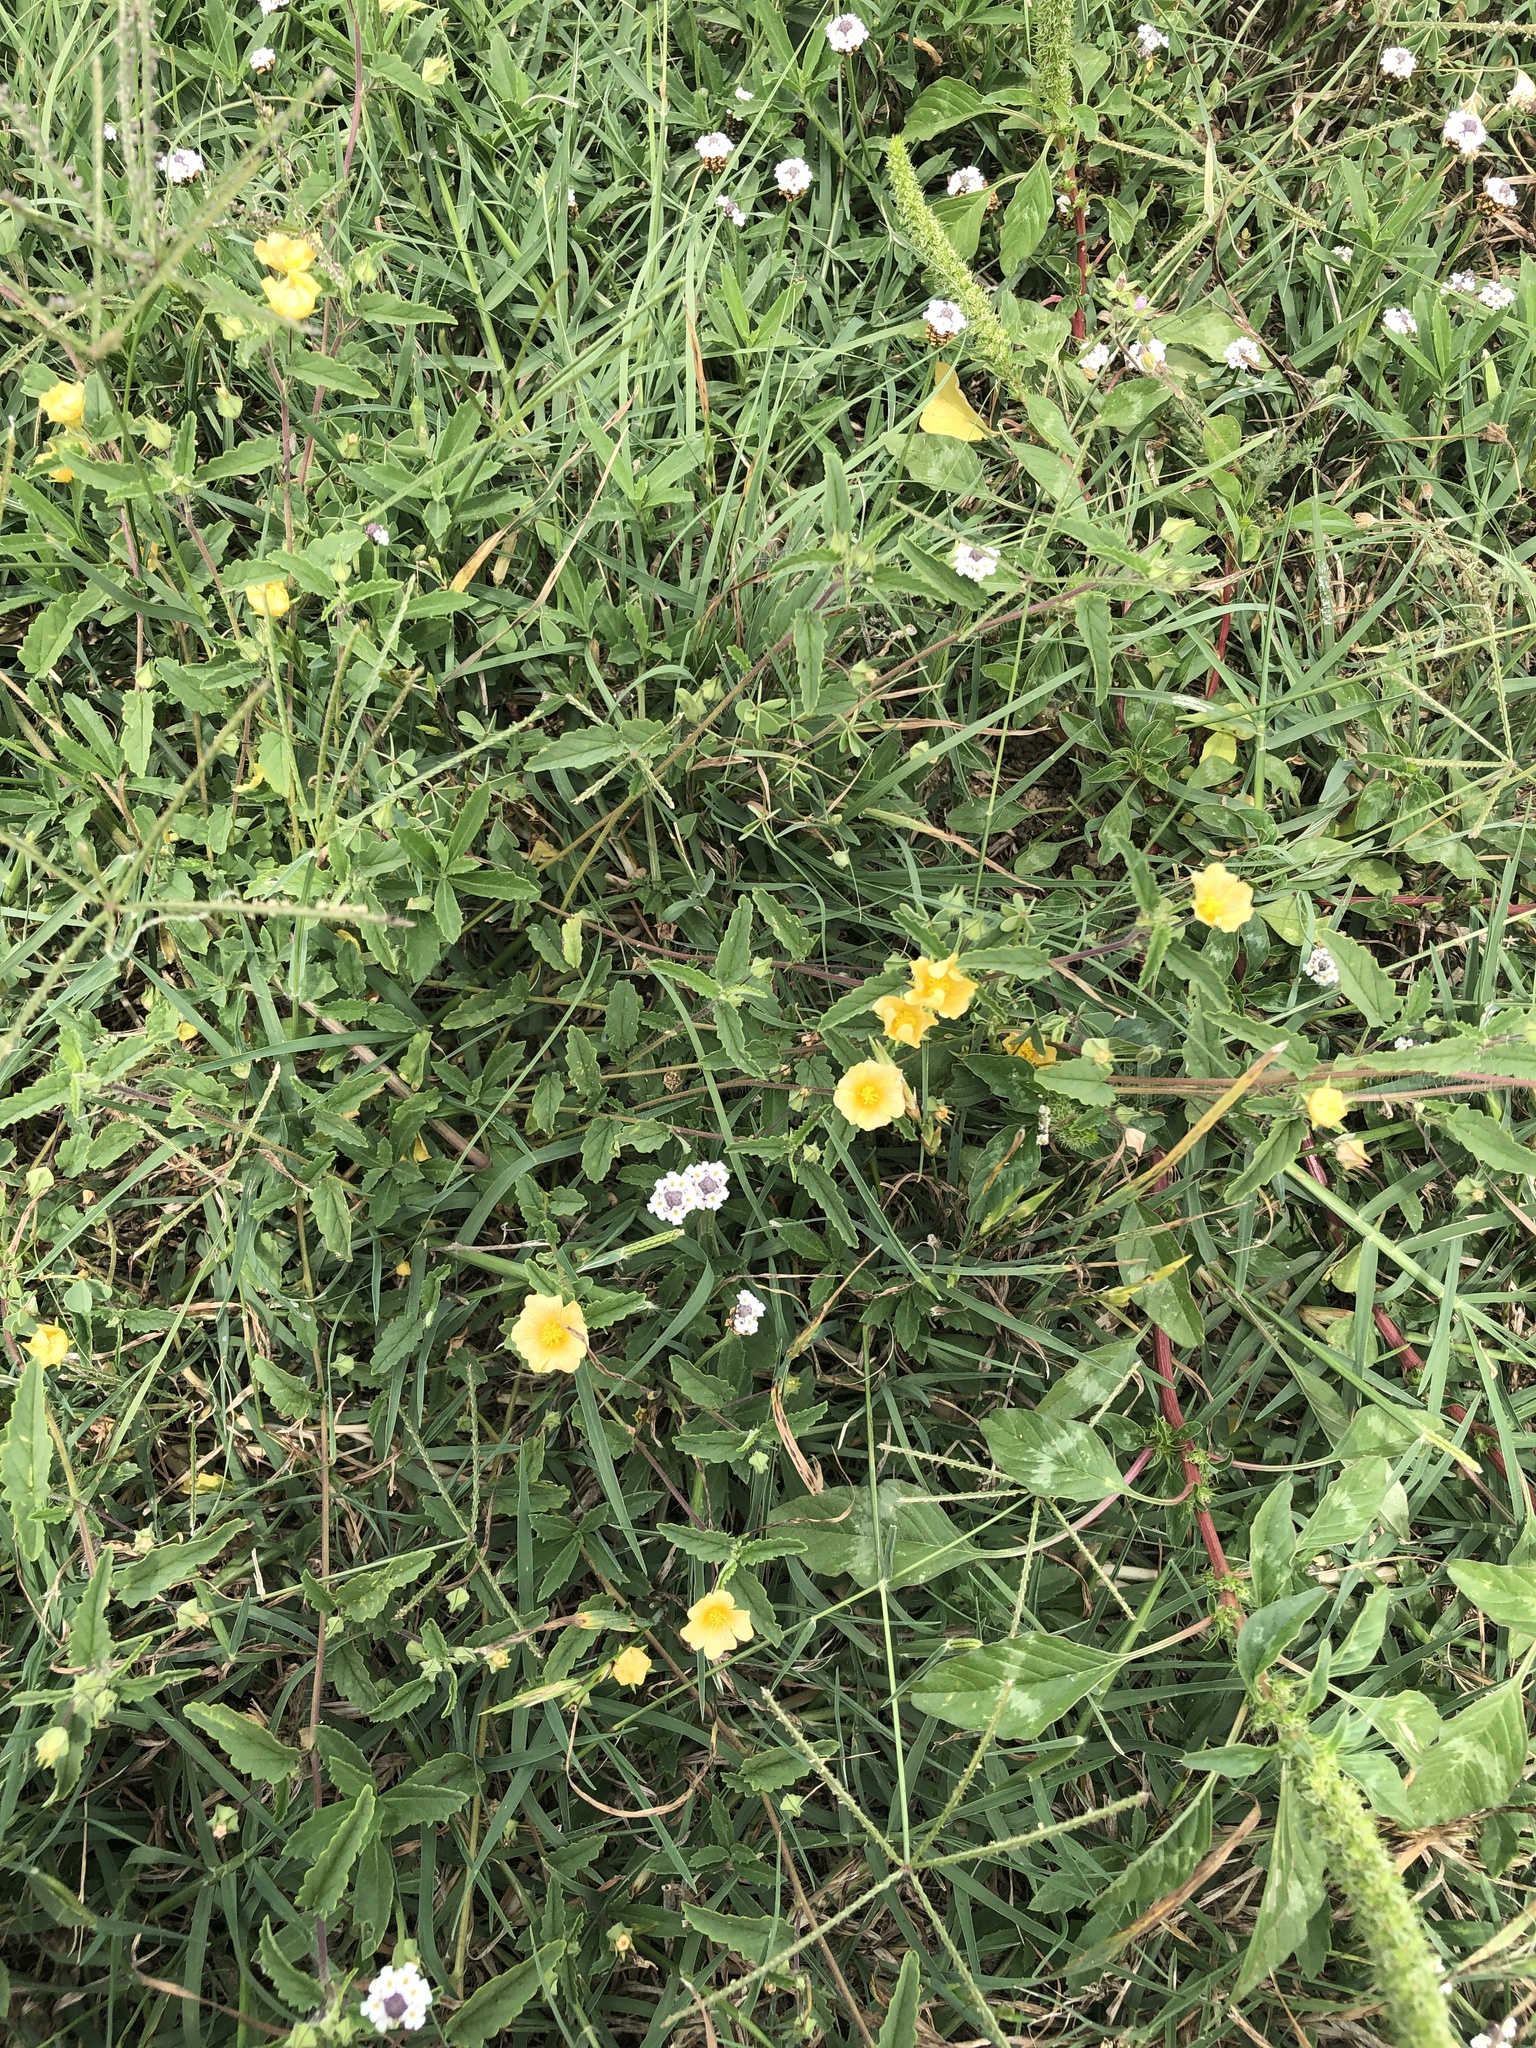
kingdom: Plantae
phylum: Tracheophyta
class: Magnoliopsida
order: Malvales
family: Malvaceae
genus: Sida
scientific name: Sida abutilifolia
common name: Spreading fanpetals
